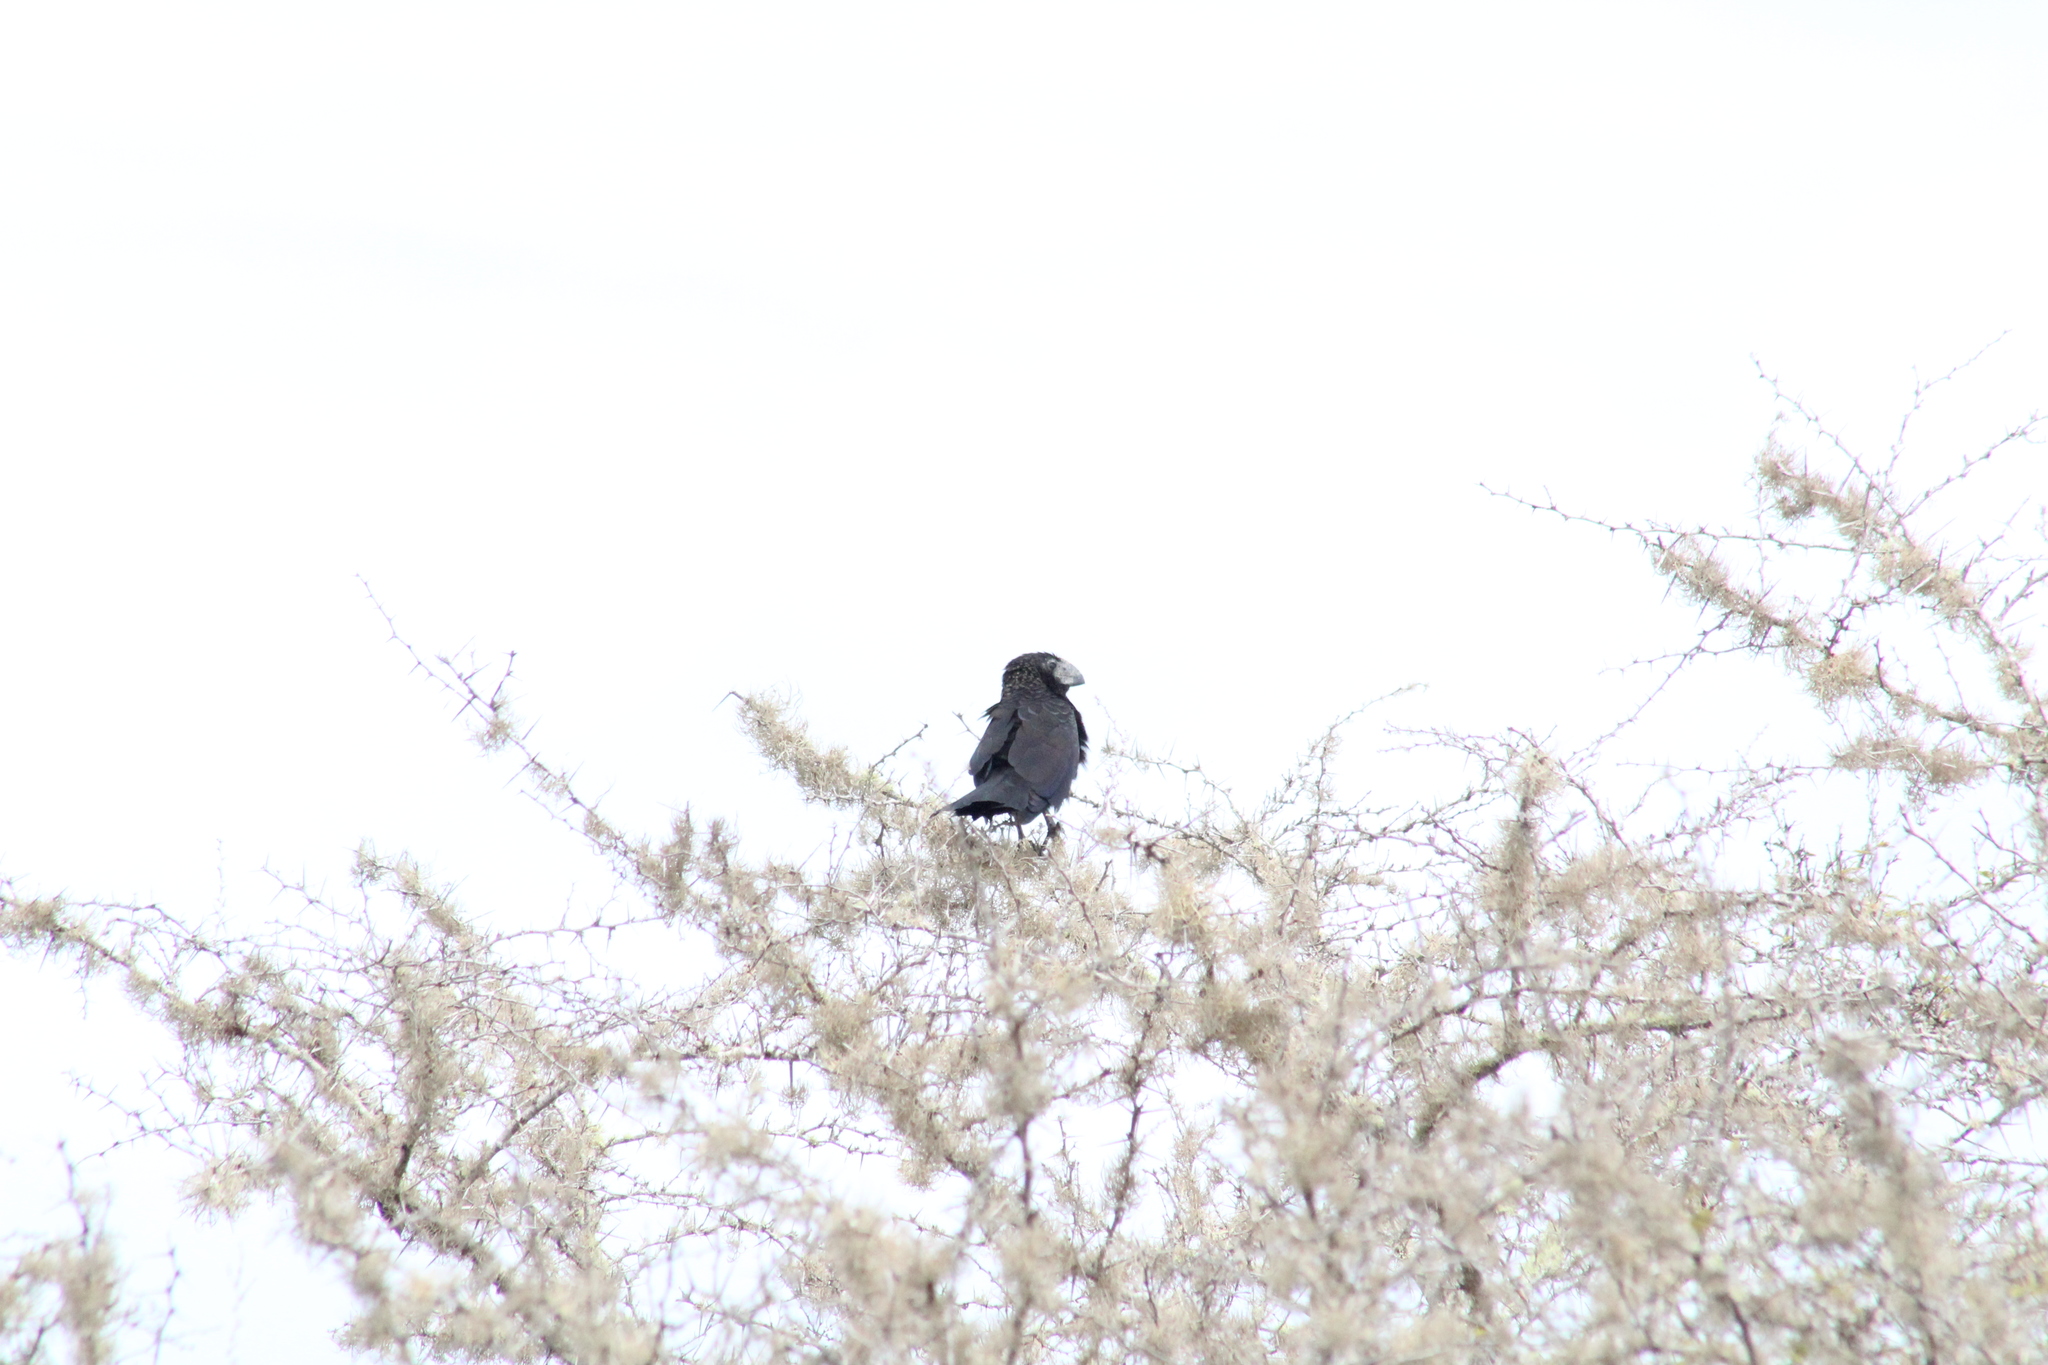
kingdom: Animalia
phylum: Chordata
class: Aves
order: Cuculiformes
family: Cuculidae
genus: Crotophaga
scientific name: Crotophaga ani
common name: Smooth-billed ani
